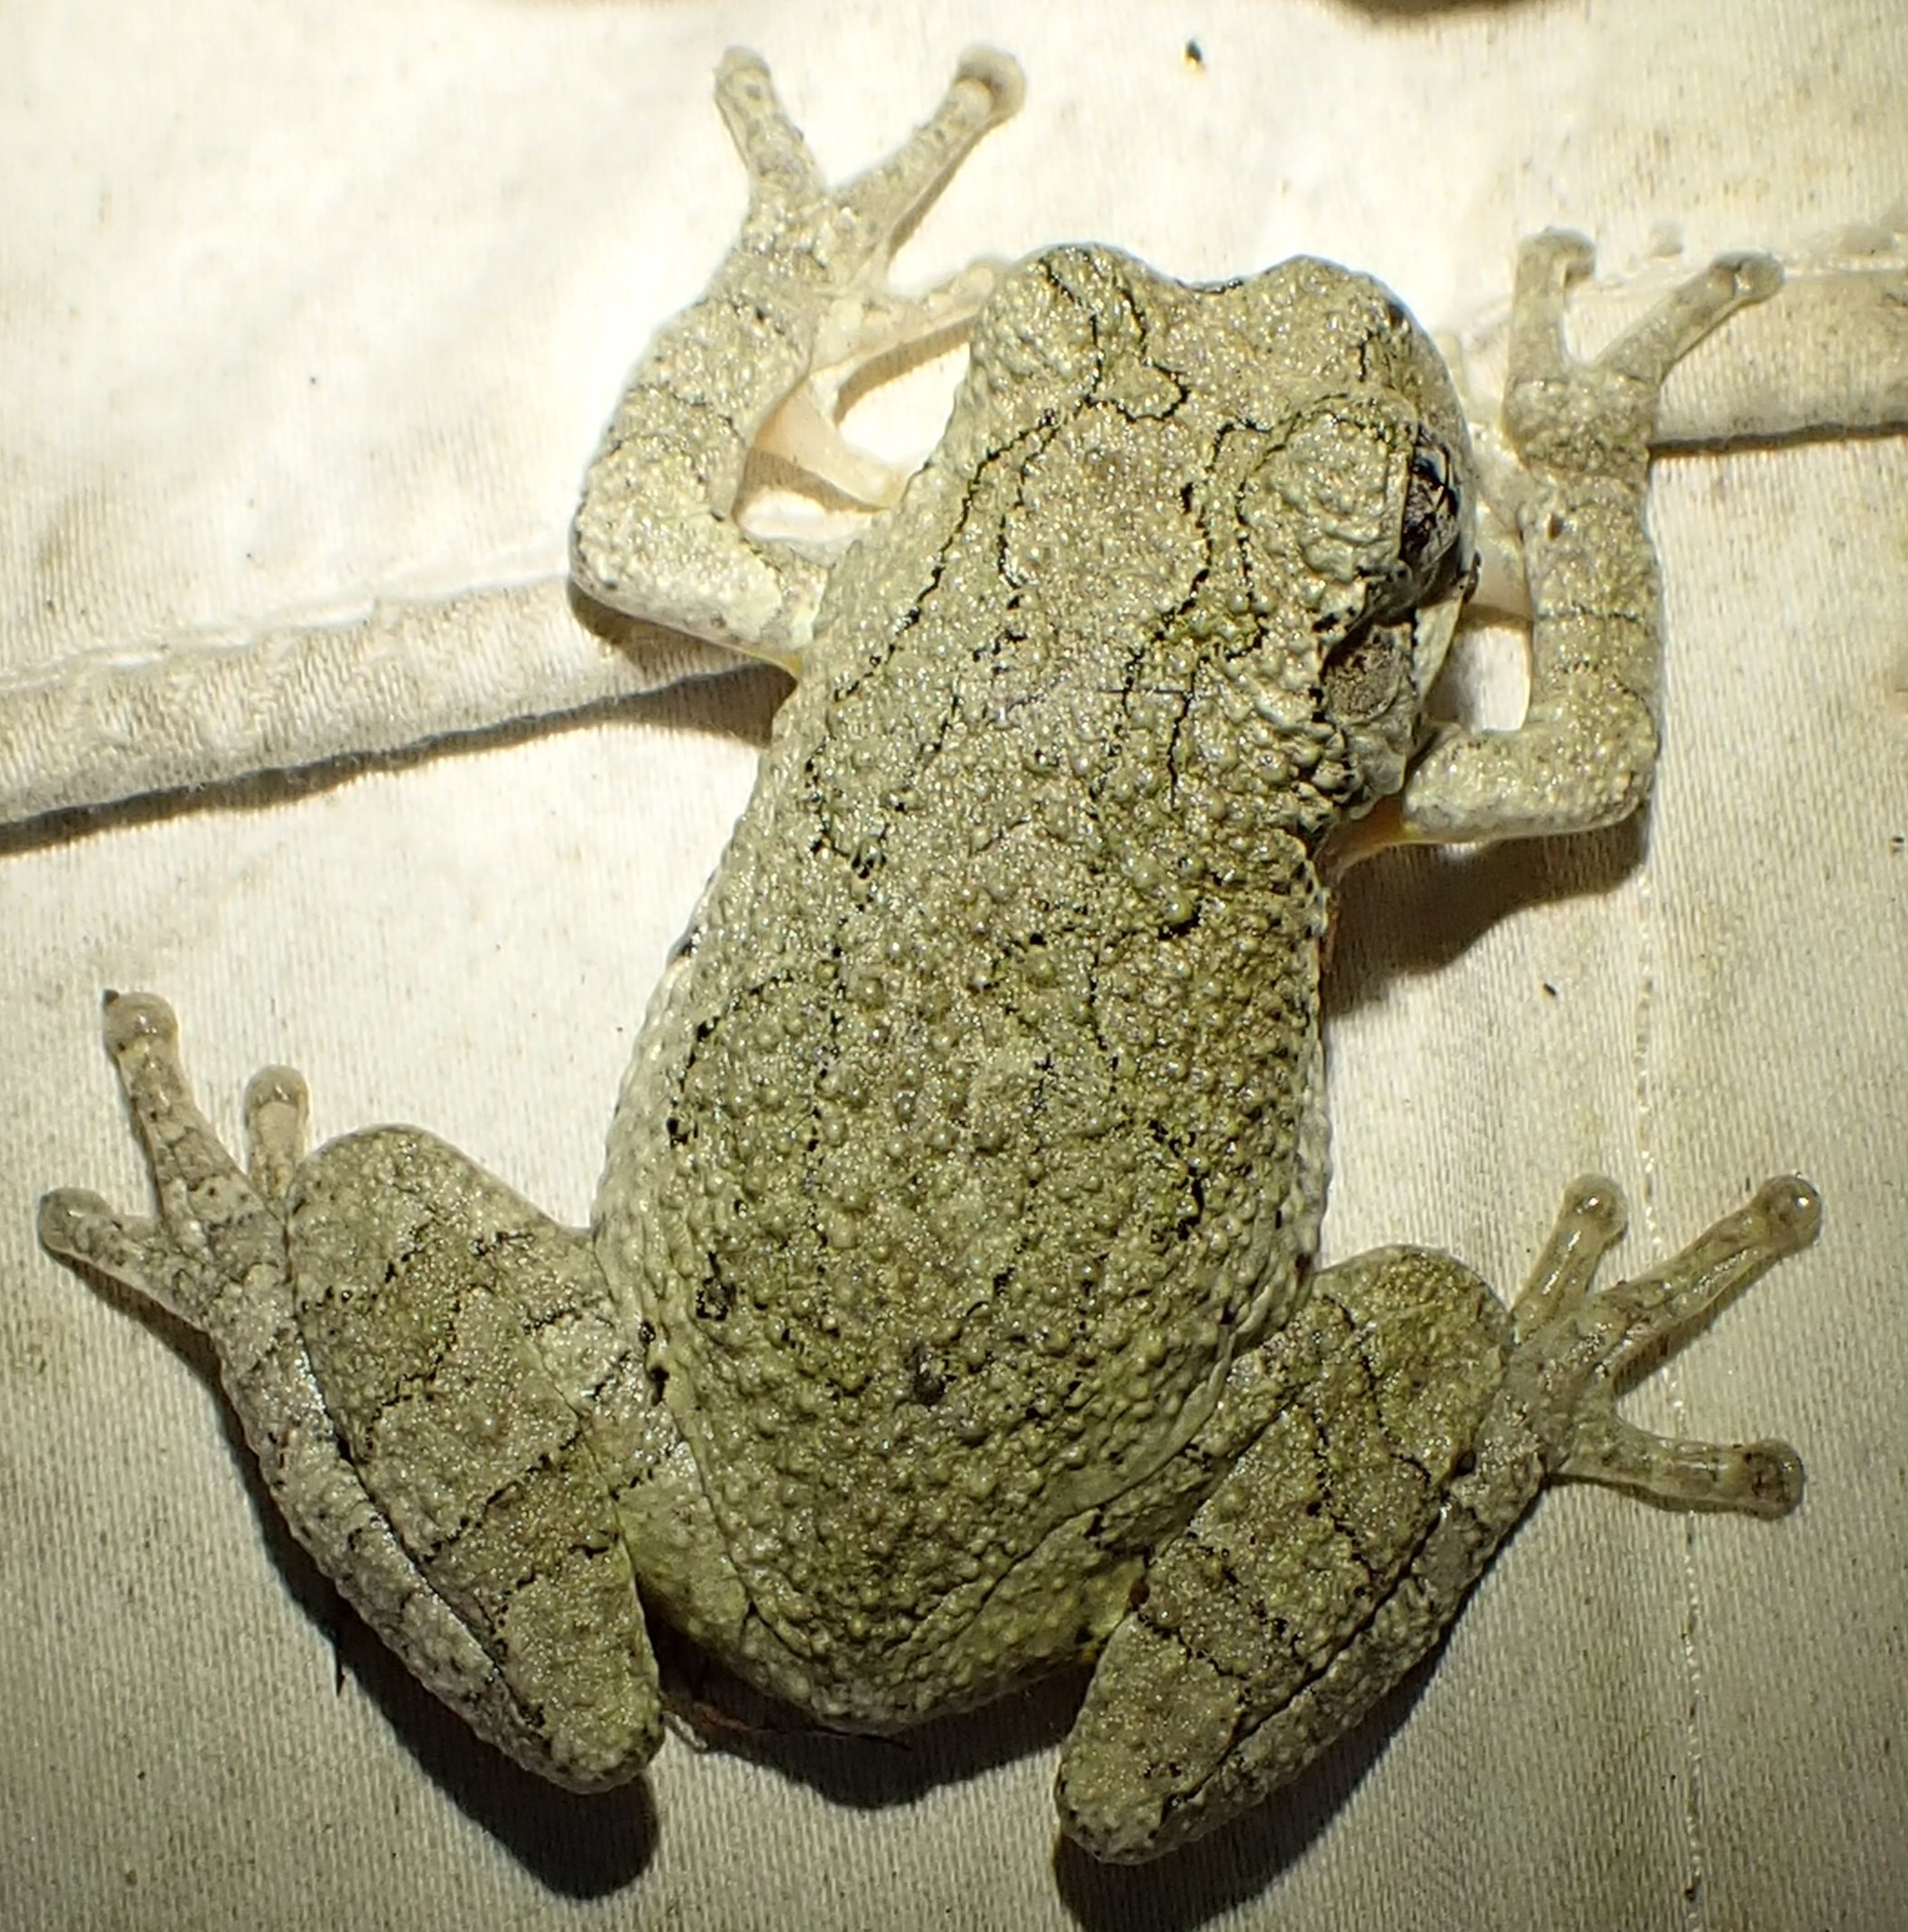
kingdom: Animalia
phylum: Chordata
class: Amphibia
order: Anura
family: Hylidae
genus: Dryophytes
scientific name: Dryophytes chrysoscelis
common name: Cope's gray treefrog
